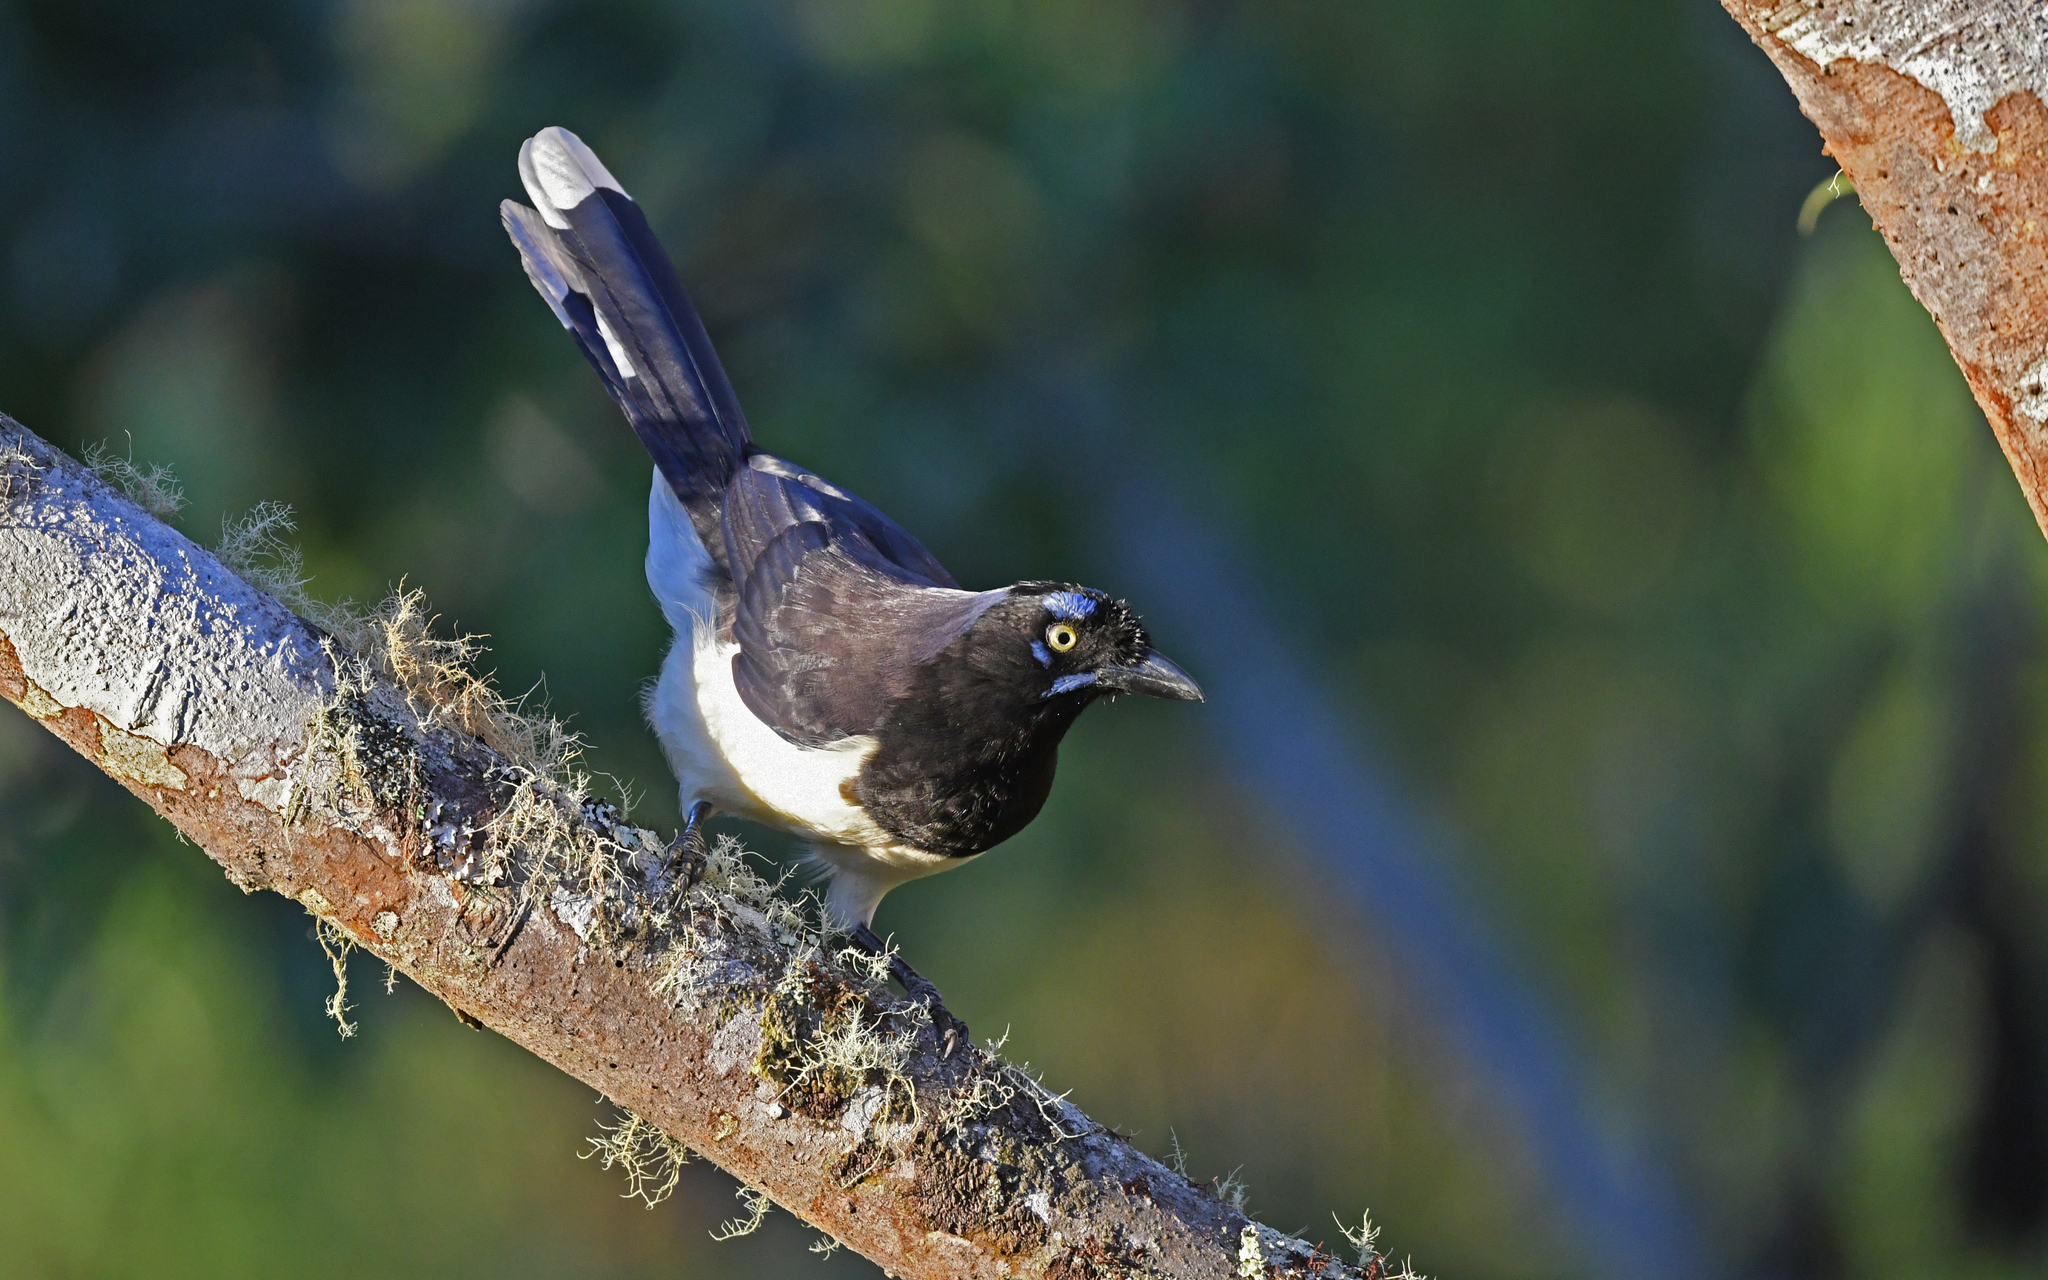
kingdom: Animalia
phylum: Chordata
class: Aves
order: Passeriformes
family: Corvidae
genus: Cyanocorax
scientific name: Cyanocorax affinis
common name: Black-chested jay
